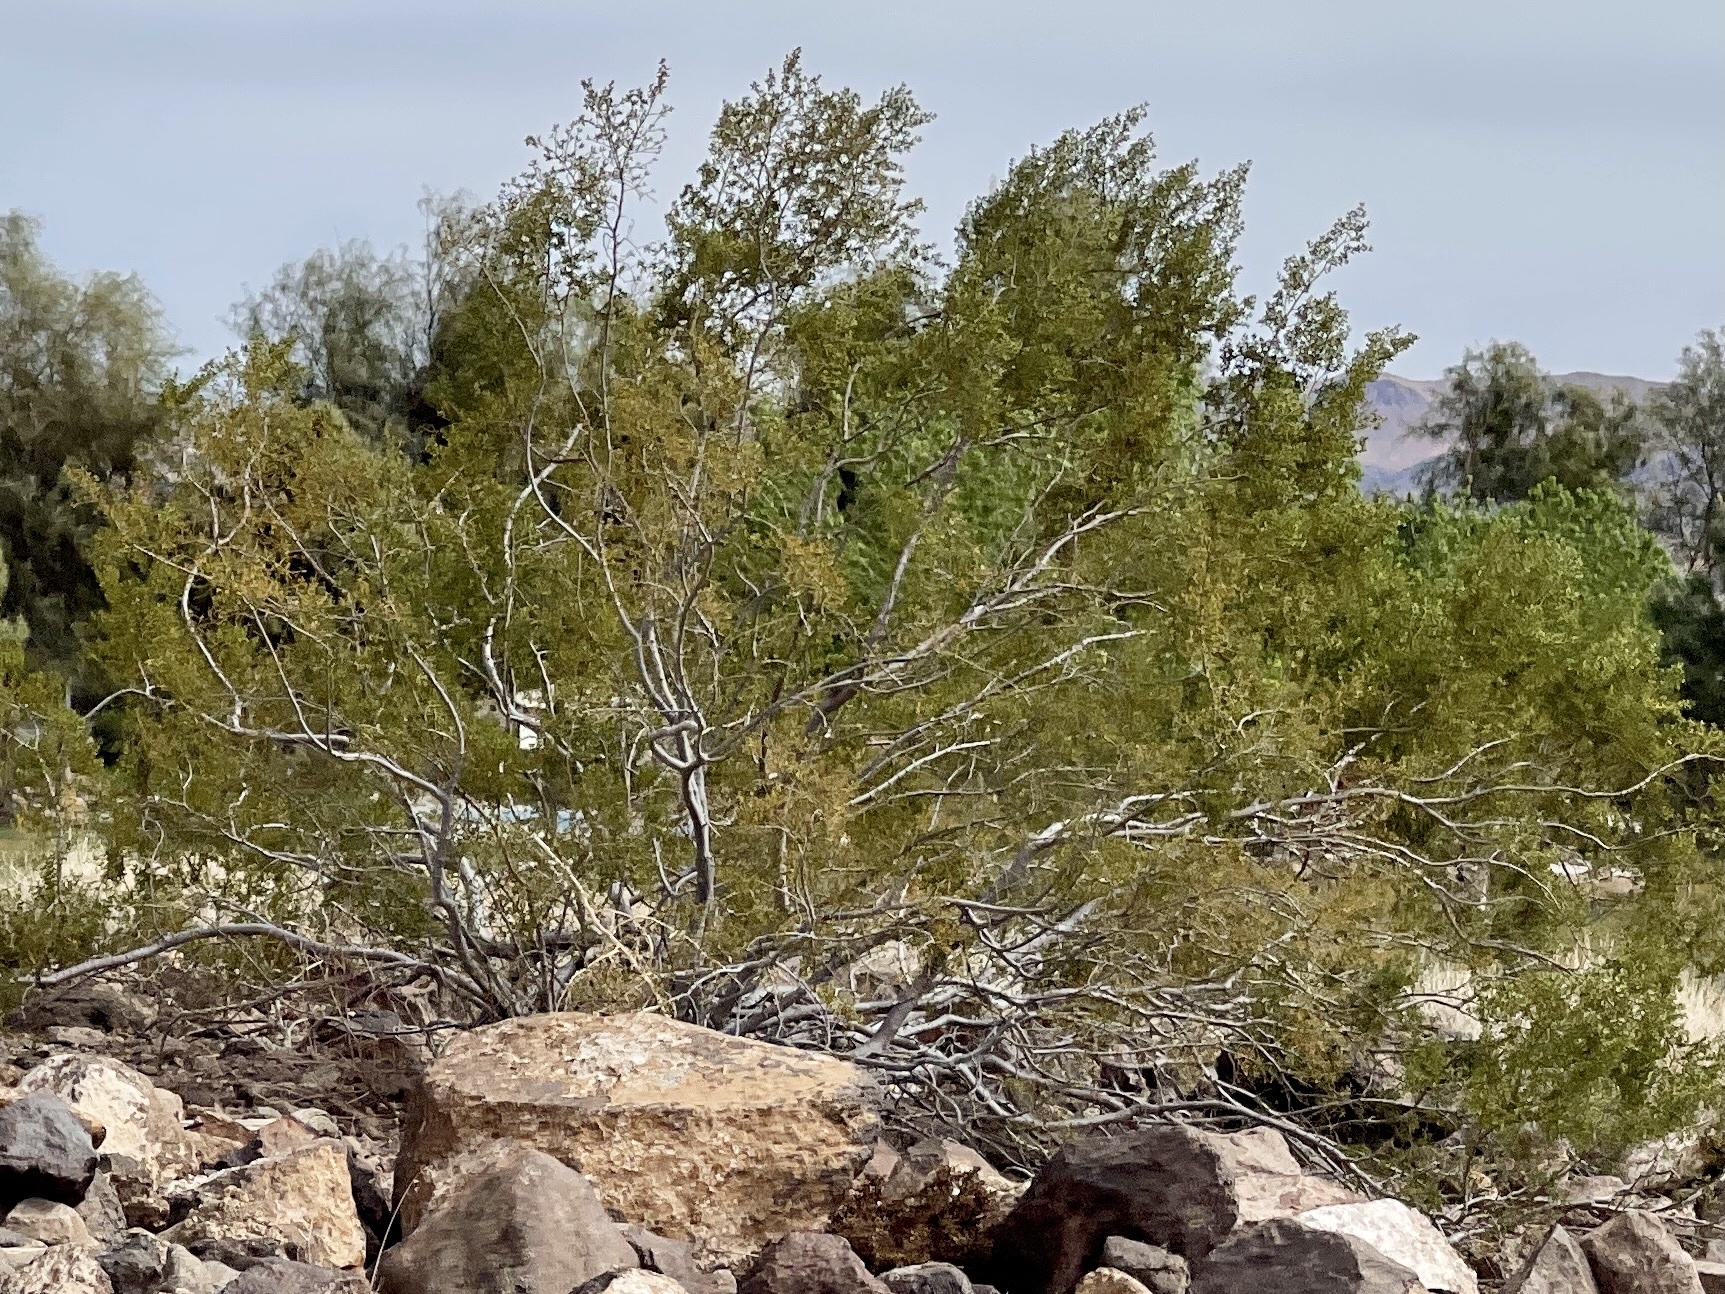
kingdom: Plantae
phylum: Tracheophyta
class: Magnoliopsida
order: Zygophyllales
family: Zygophyllaceae
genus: Larrea
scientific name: Larrea tridentata
